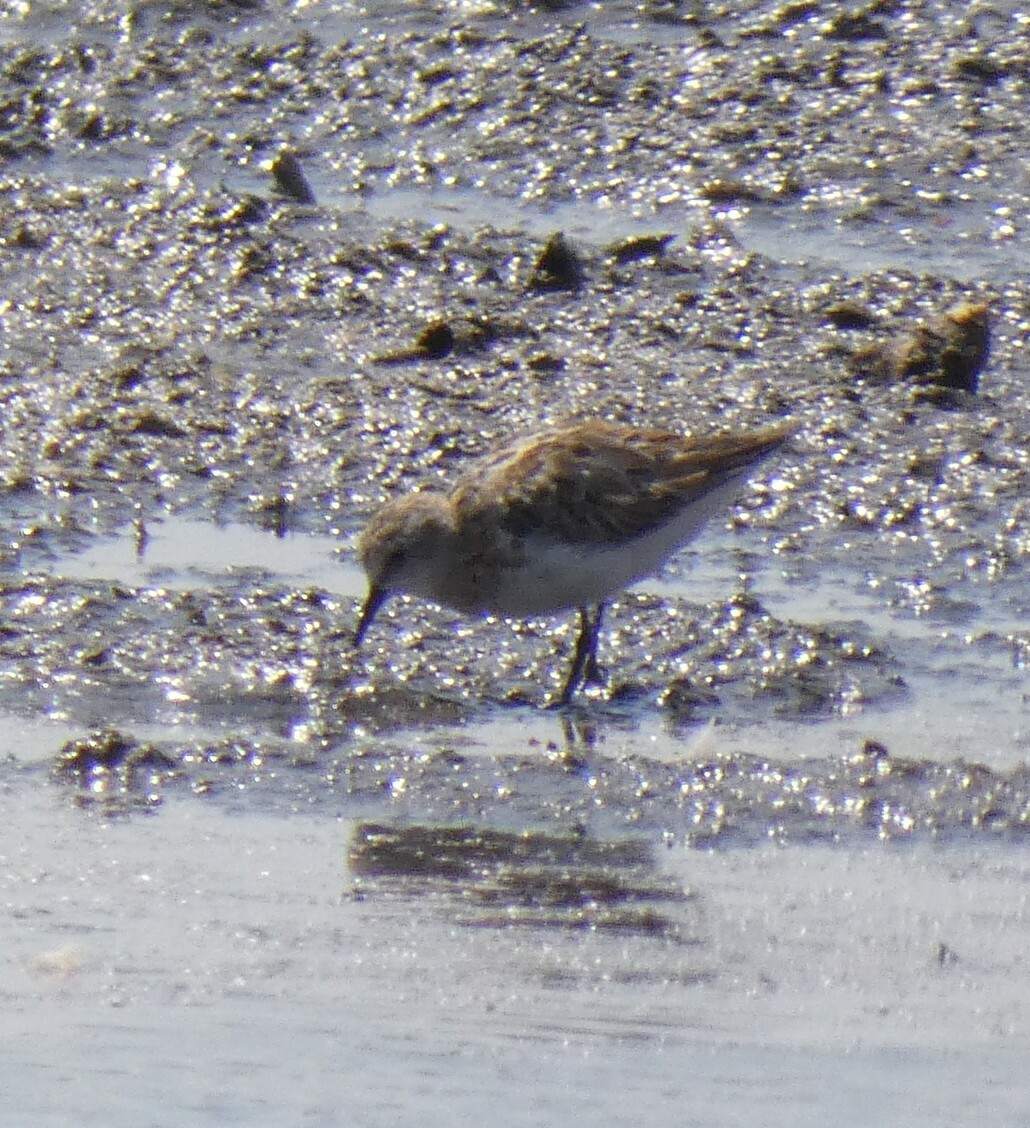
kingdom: Animalia
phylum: Chordata
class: Aves
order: Charadriiformes
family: Scolopacidae
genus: Calidris
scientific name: Calidris minuta
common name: Little stint
